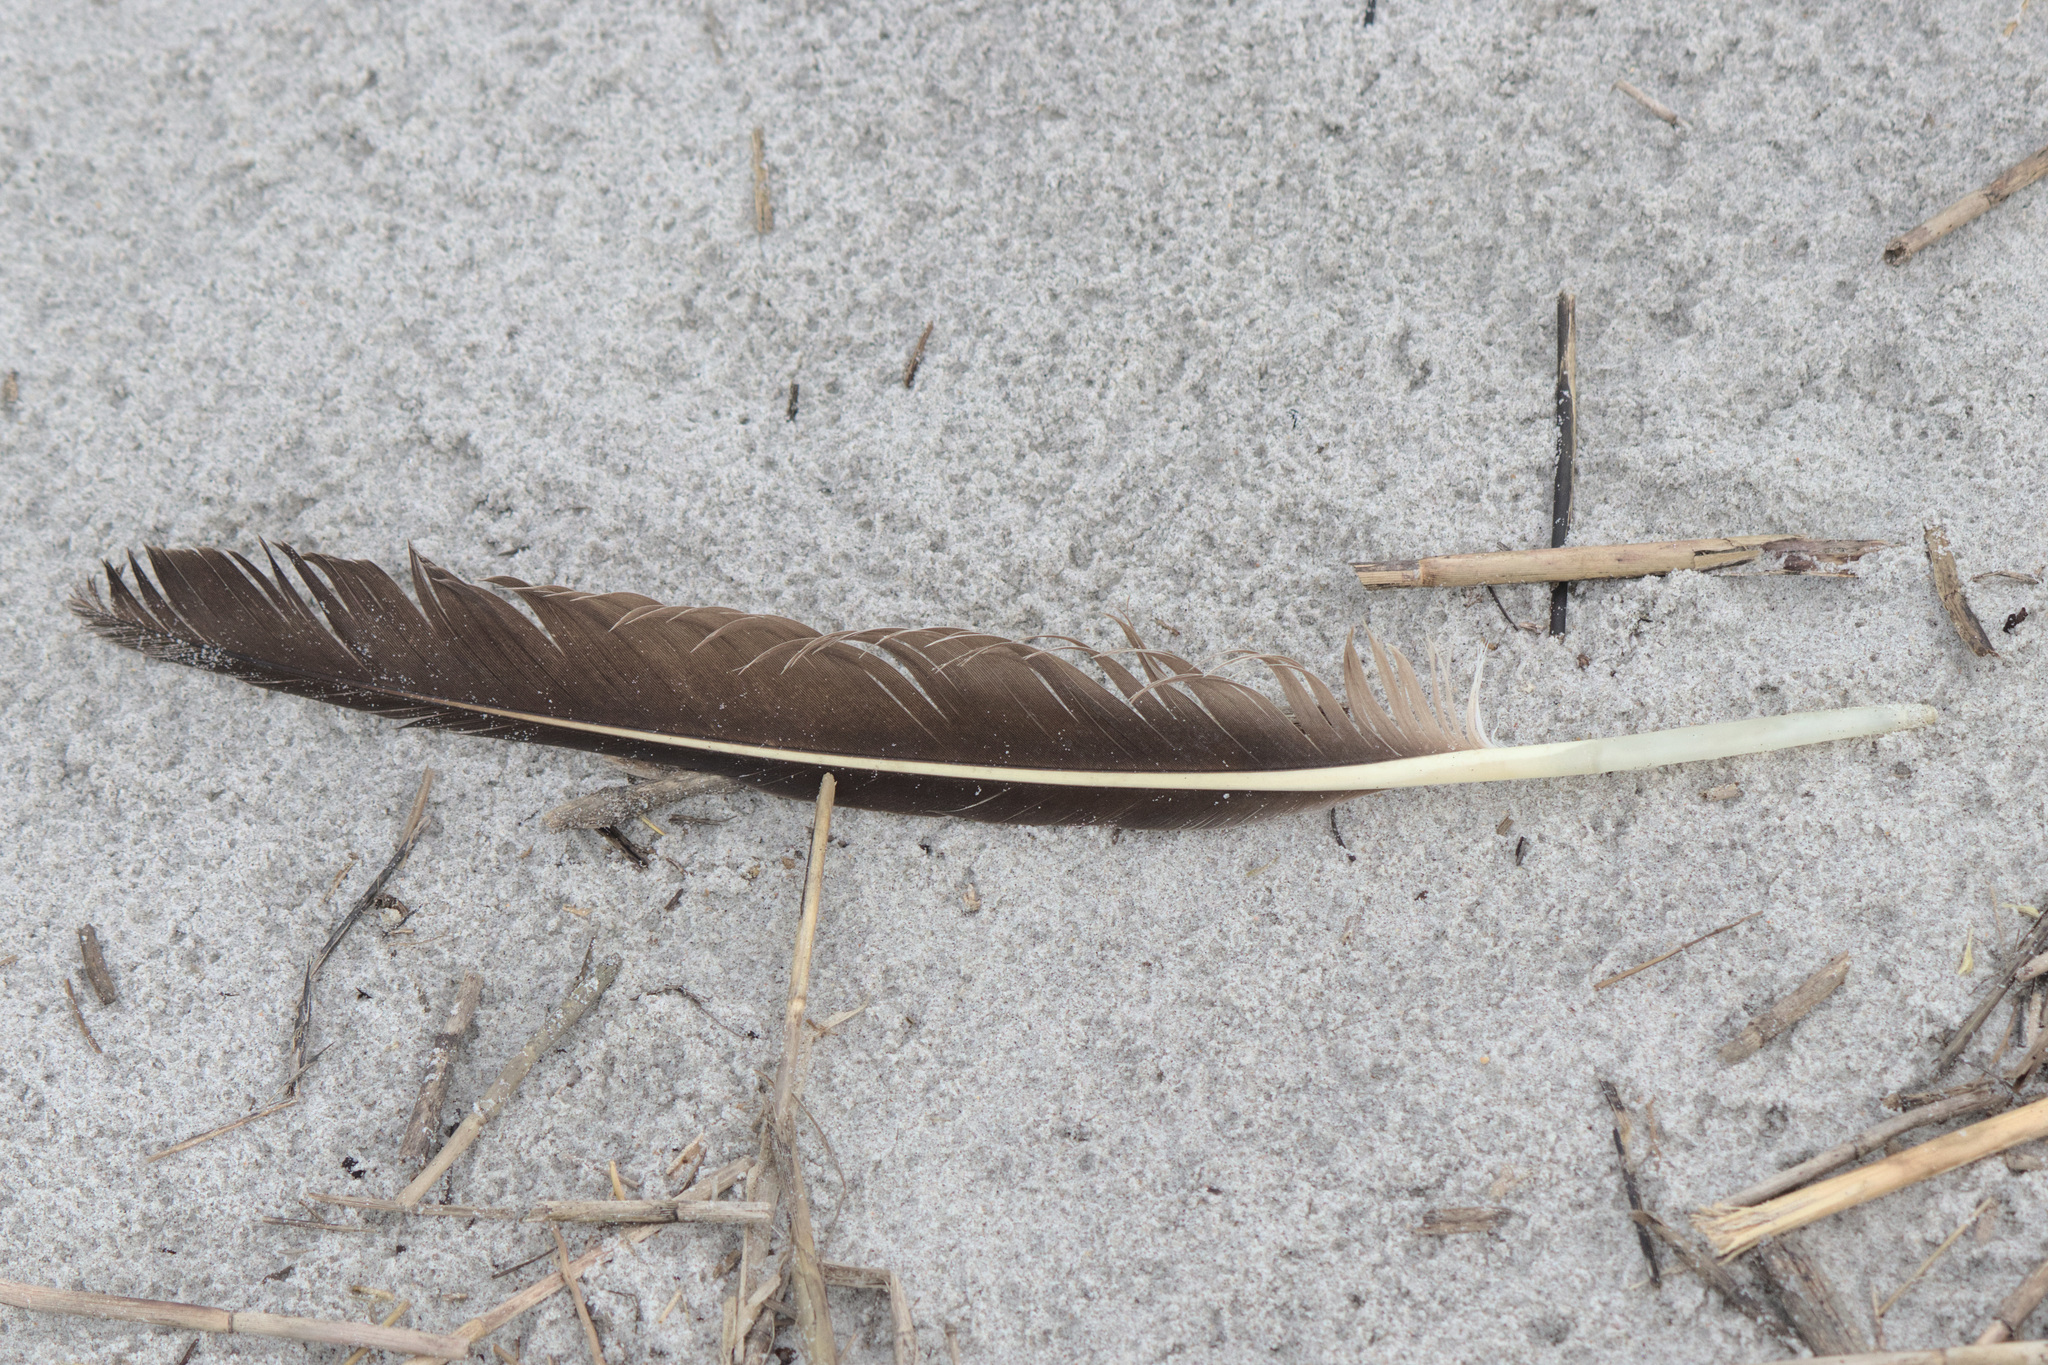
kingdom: Animalia
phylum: Chordata
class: Aves
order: Pelecaniformes
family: Pelecanidae
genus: Pelecanus
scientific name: Pelecanus occidentalis
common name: Brown pelican
